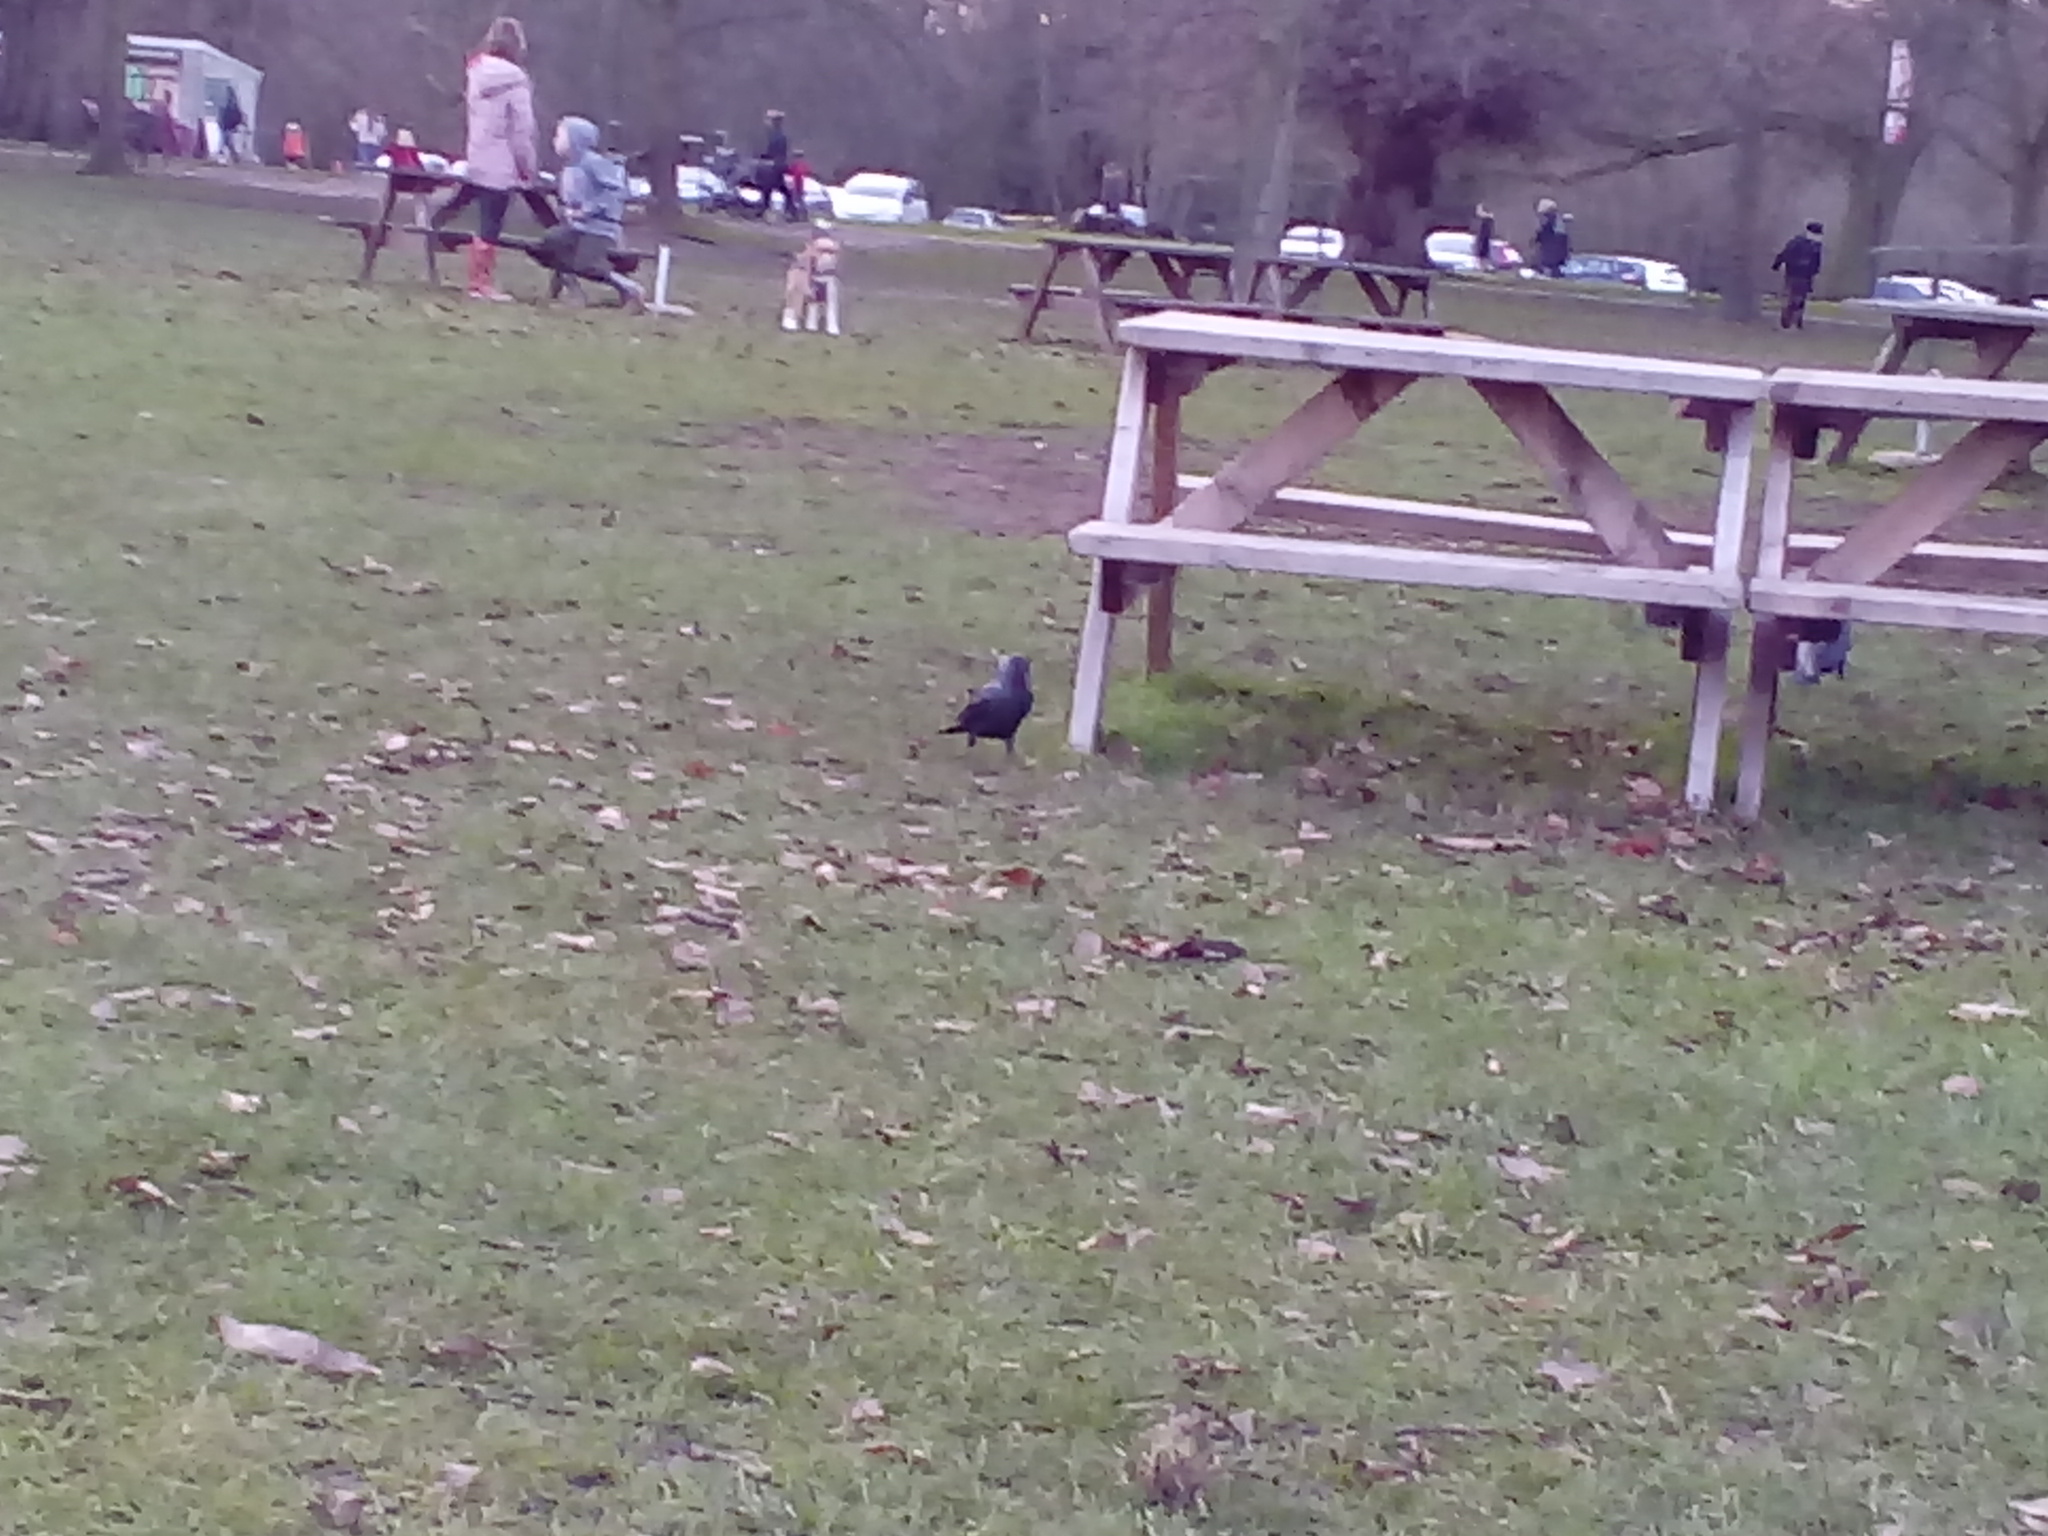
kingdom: Animalia
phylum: Chordata
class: Aves
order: Passeriformes
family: Corvidae
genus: Coloeus
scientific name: Coloeus monedula
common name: Western jackdaw
